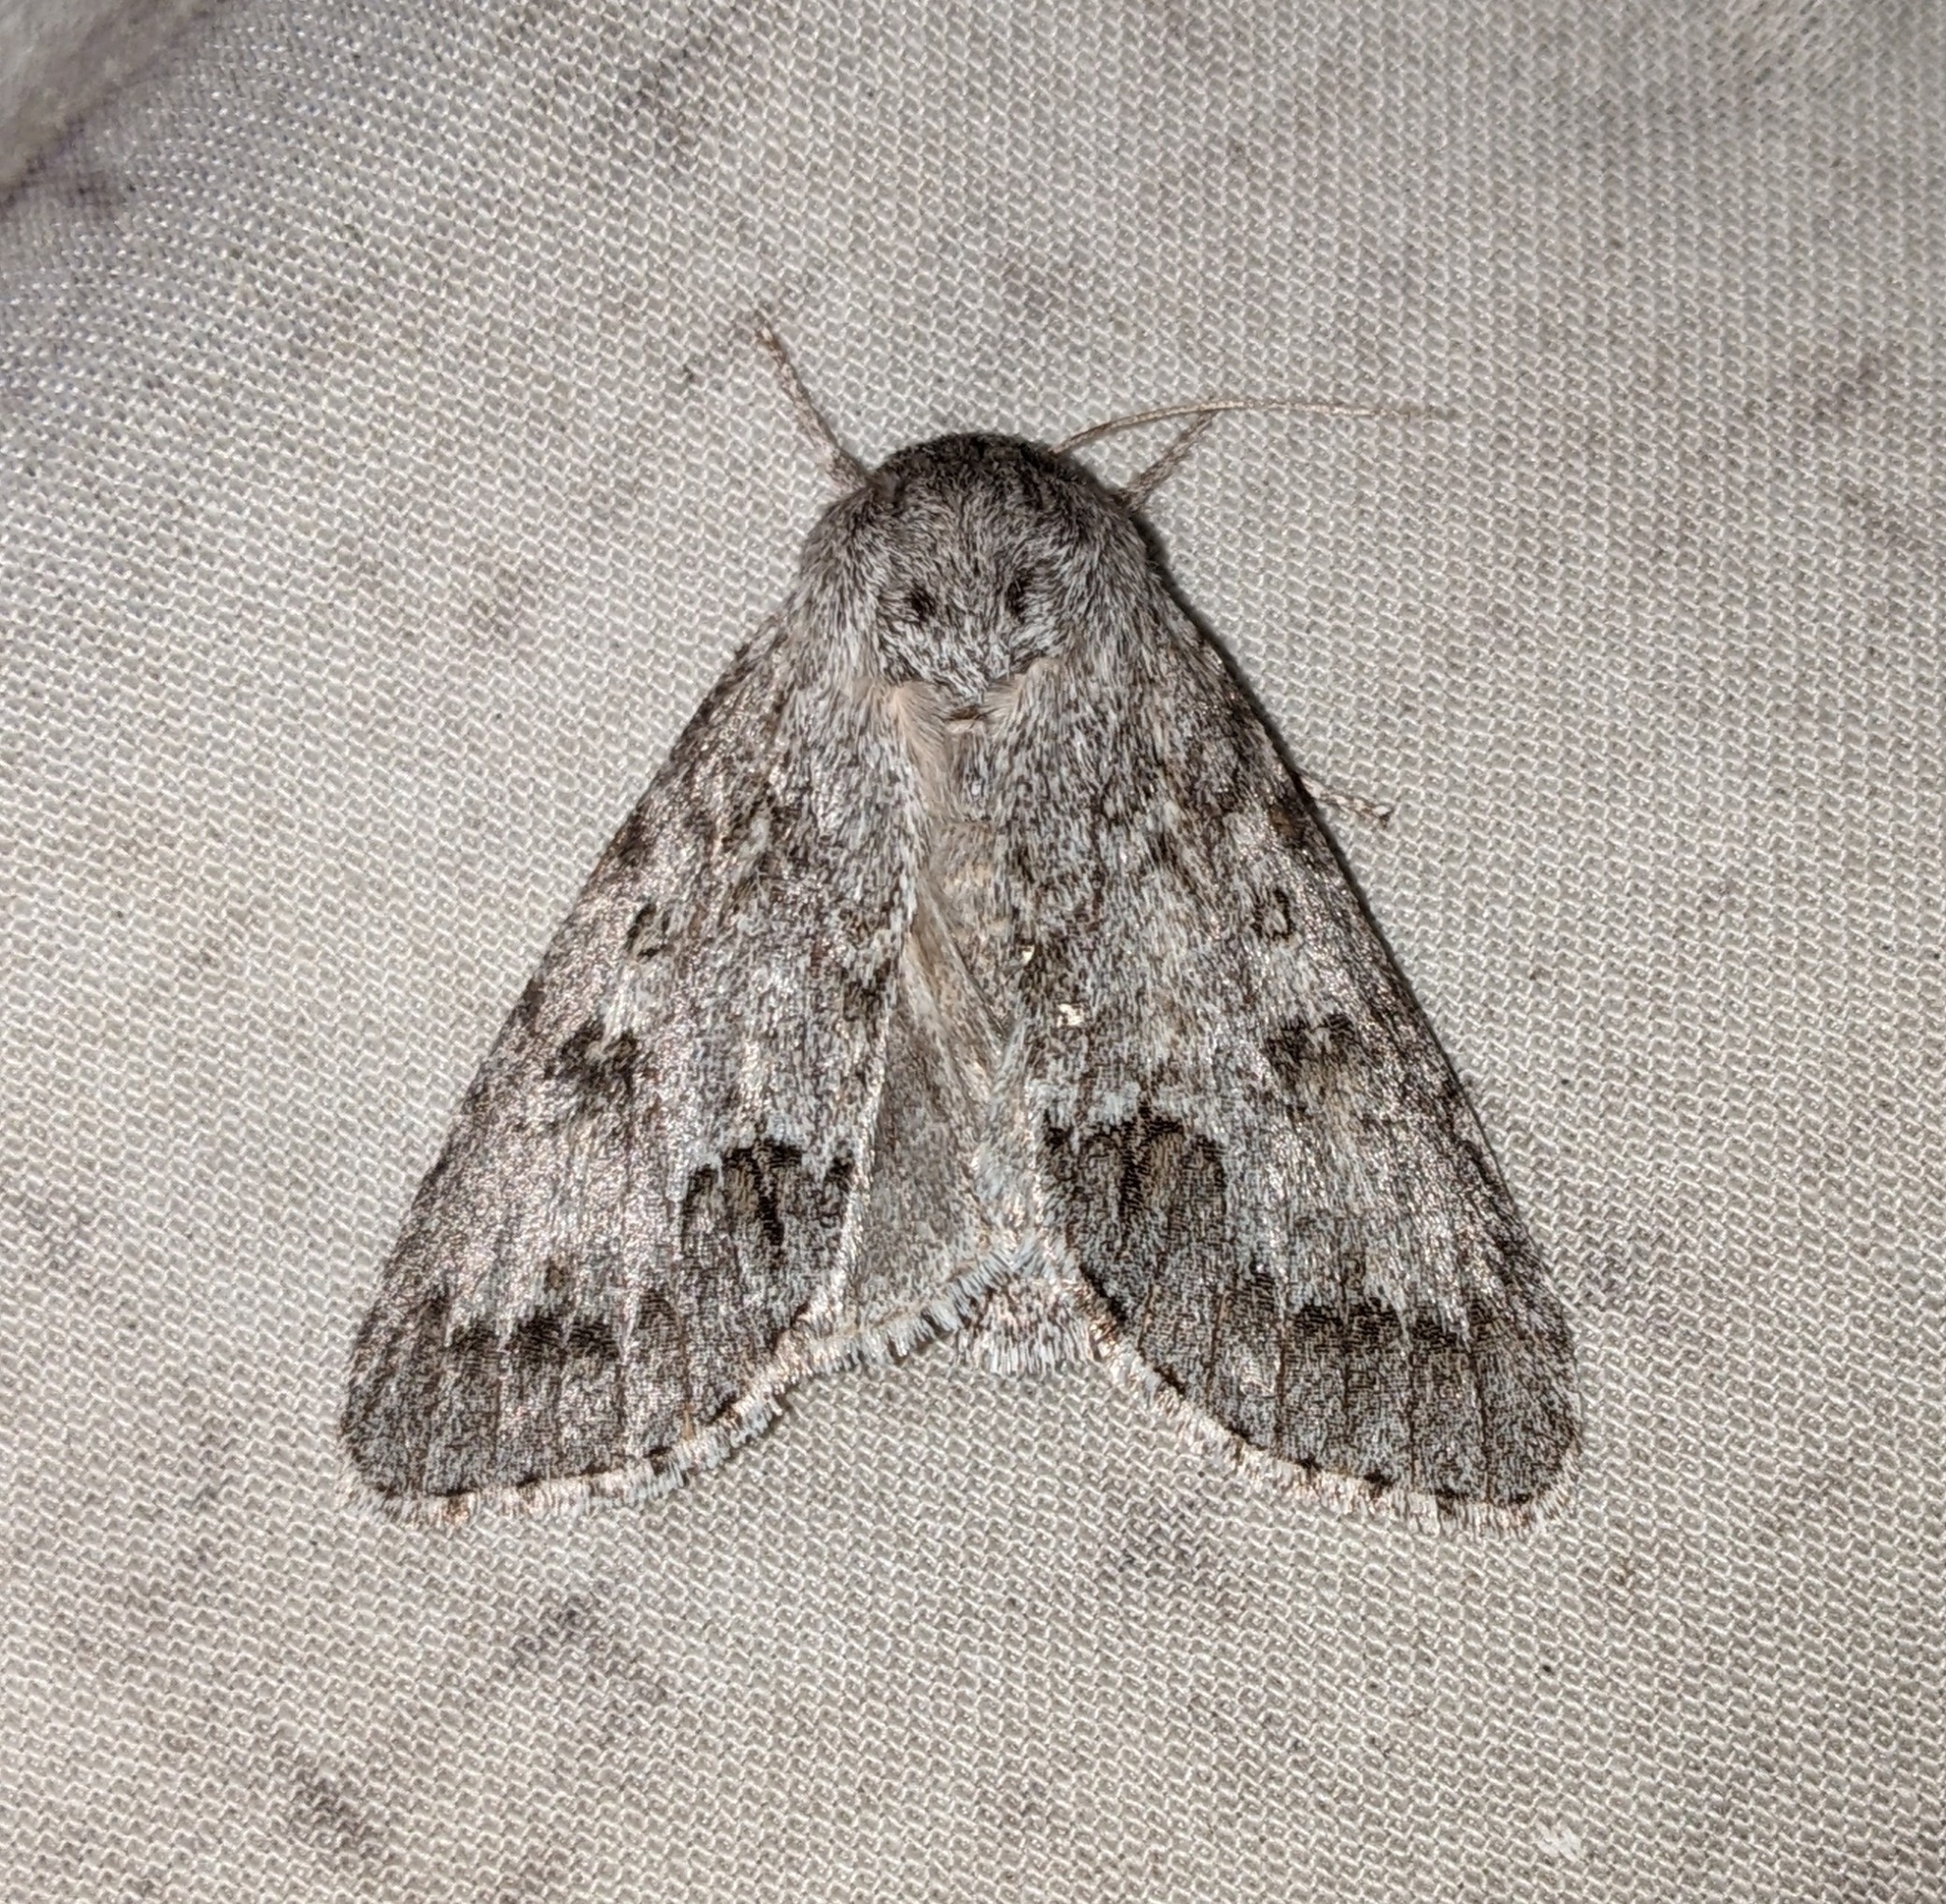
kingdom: Animalia
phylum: Arthropoda
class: Insecta
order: Lepidoptera
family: Noctuidae
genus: Acronicta
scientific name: Acronicta insita
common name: Large gray dagger
